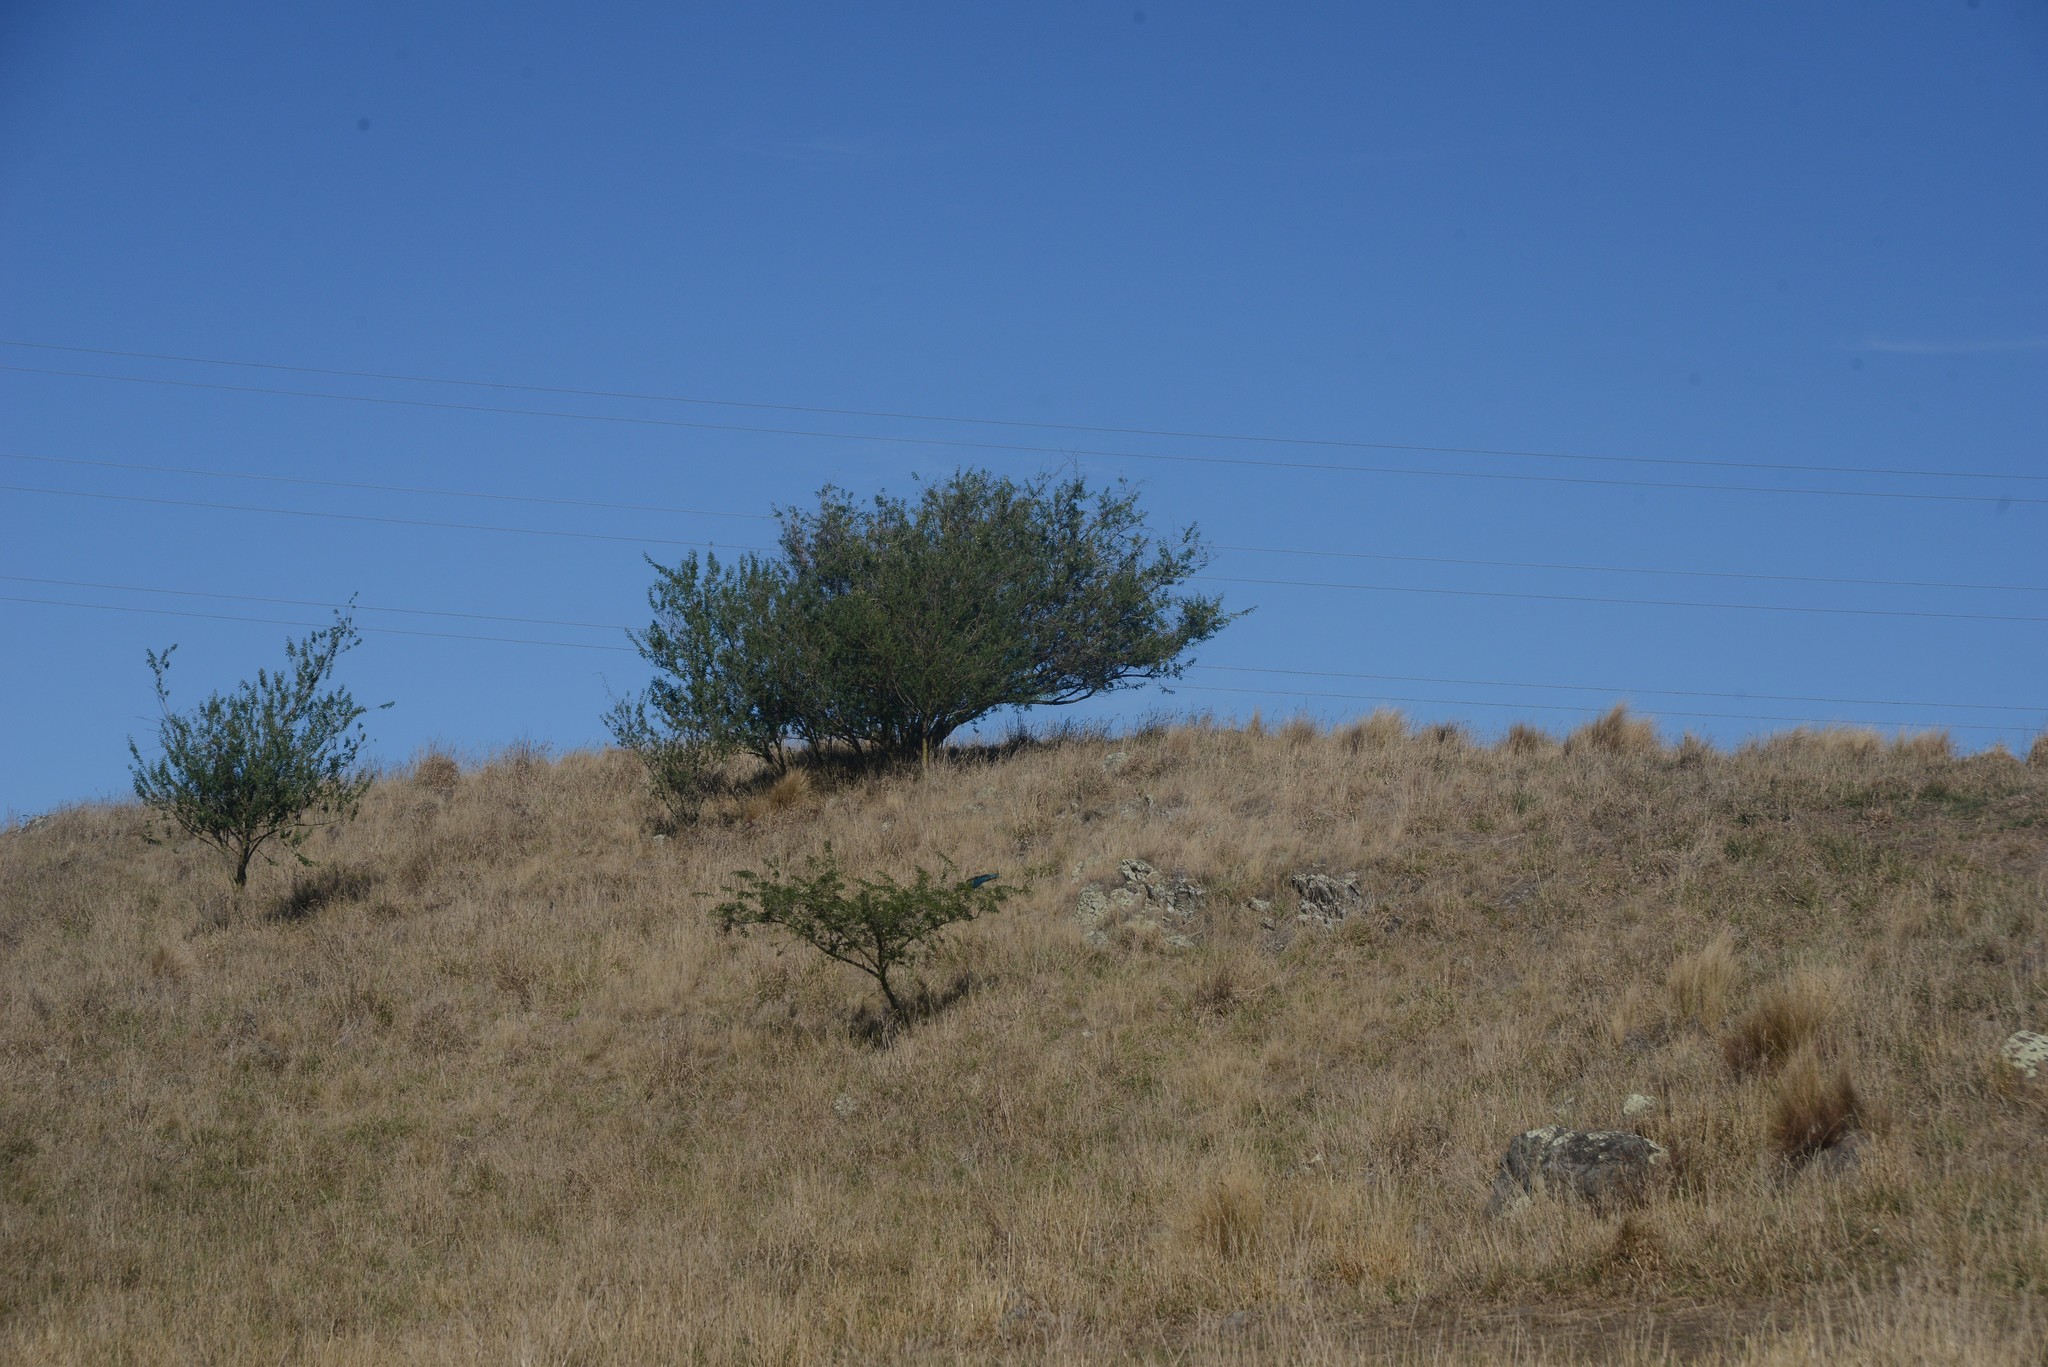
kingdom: Plantae
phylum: Tracheophyta
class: Magnoliopsida
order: Fabales
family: Fabaceae
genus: Chamaecytisus
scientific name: Chamaecytisus prolifer
